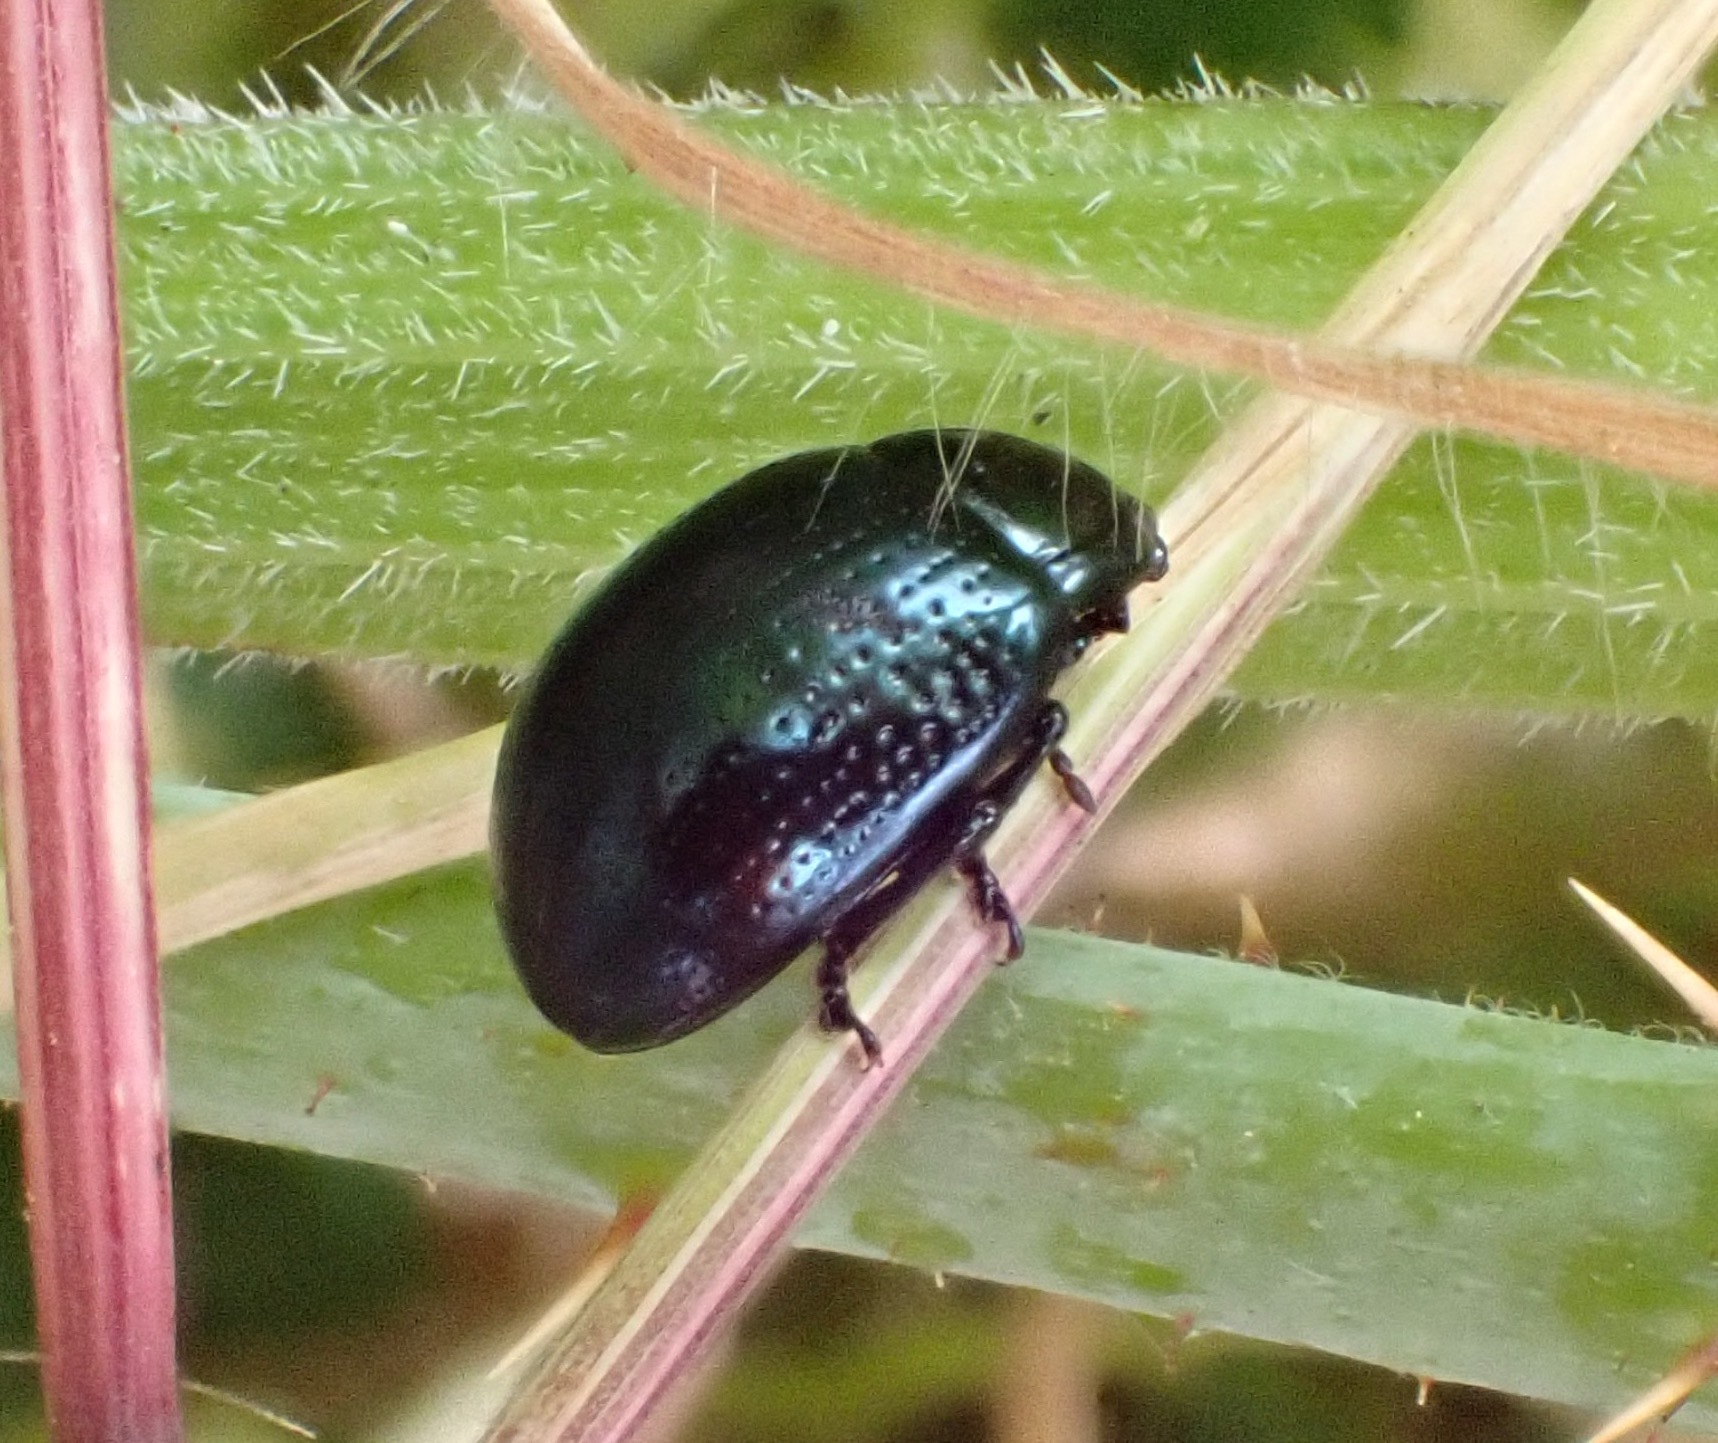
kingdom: Animalia
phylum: Arthropoda
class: Insecta
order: Coleoptera
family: Chrysomelidae
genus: Chrysolina
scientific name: Chrysolina oricalcia
